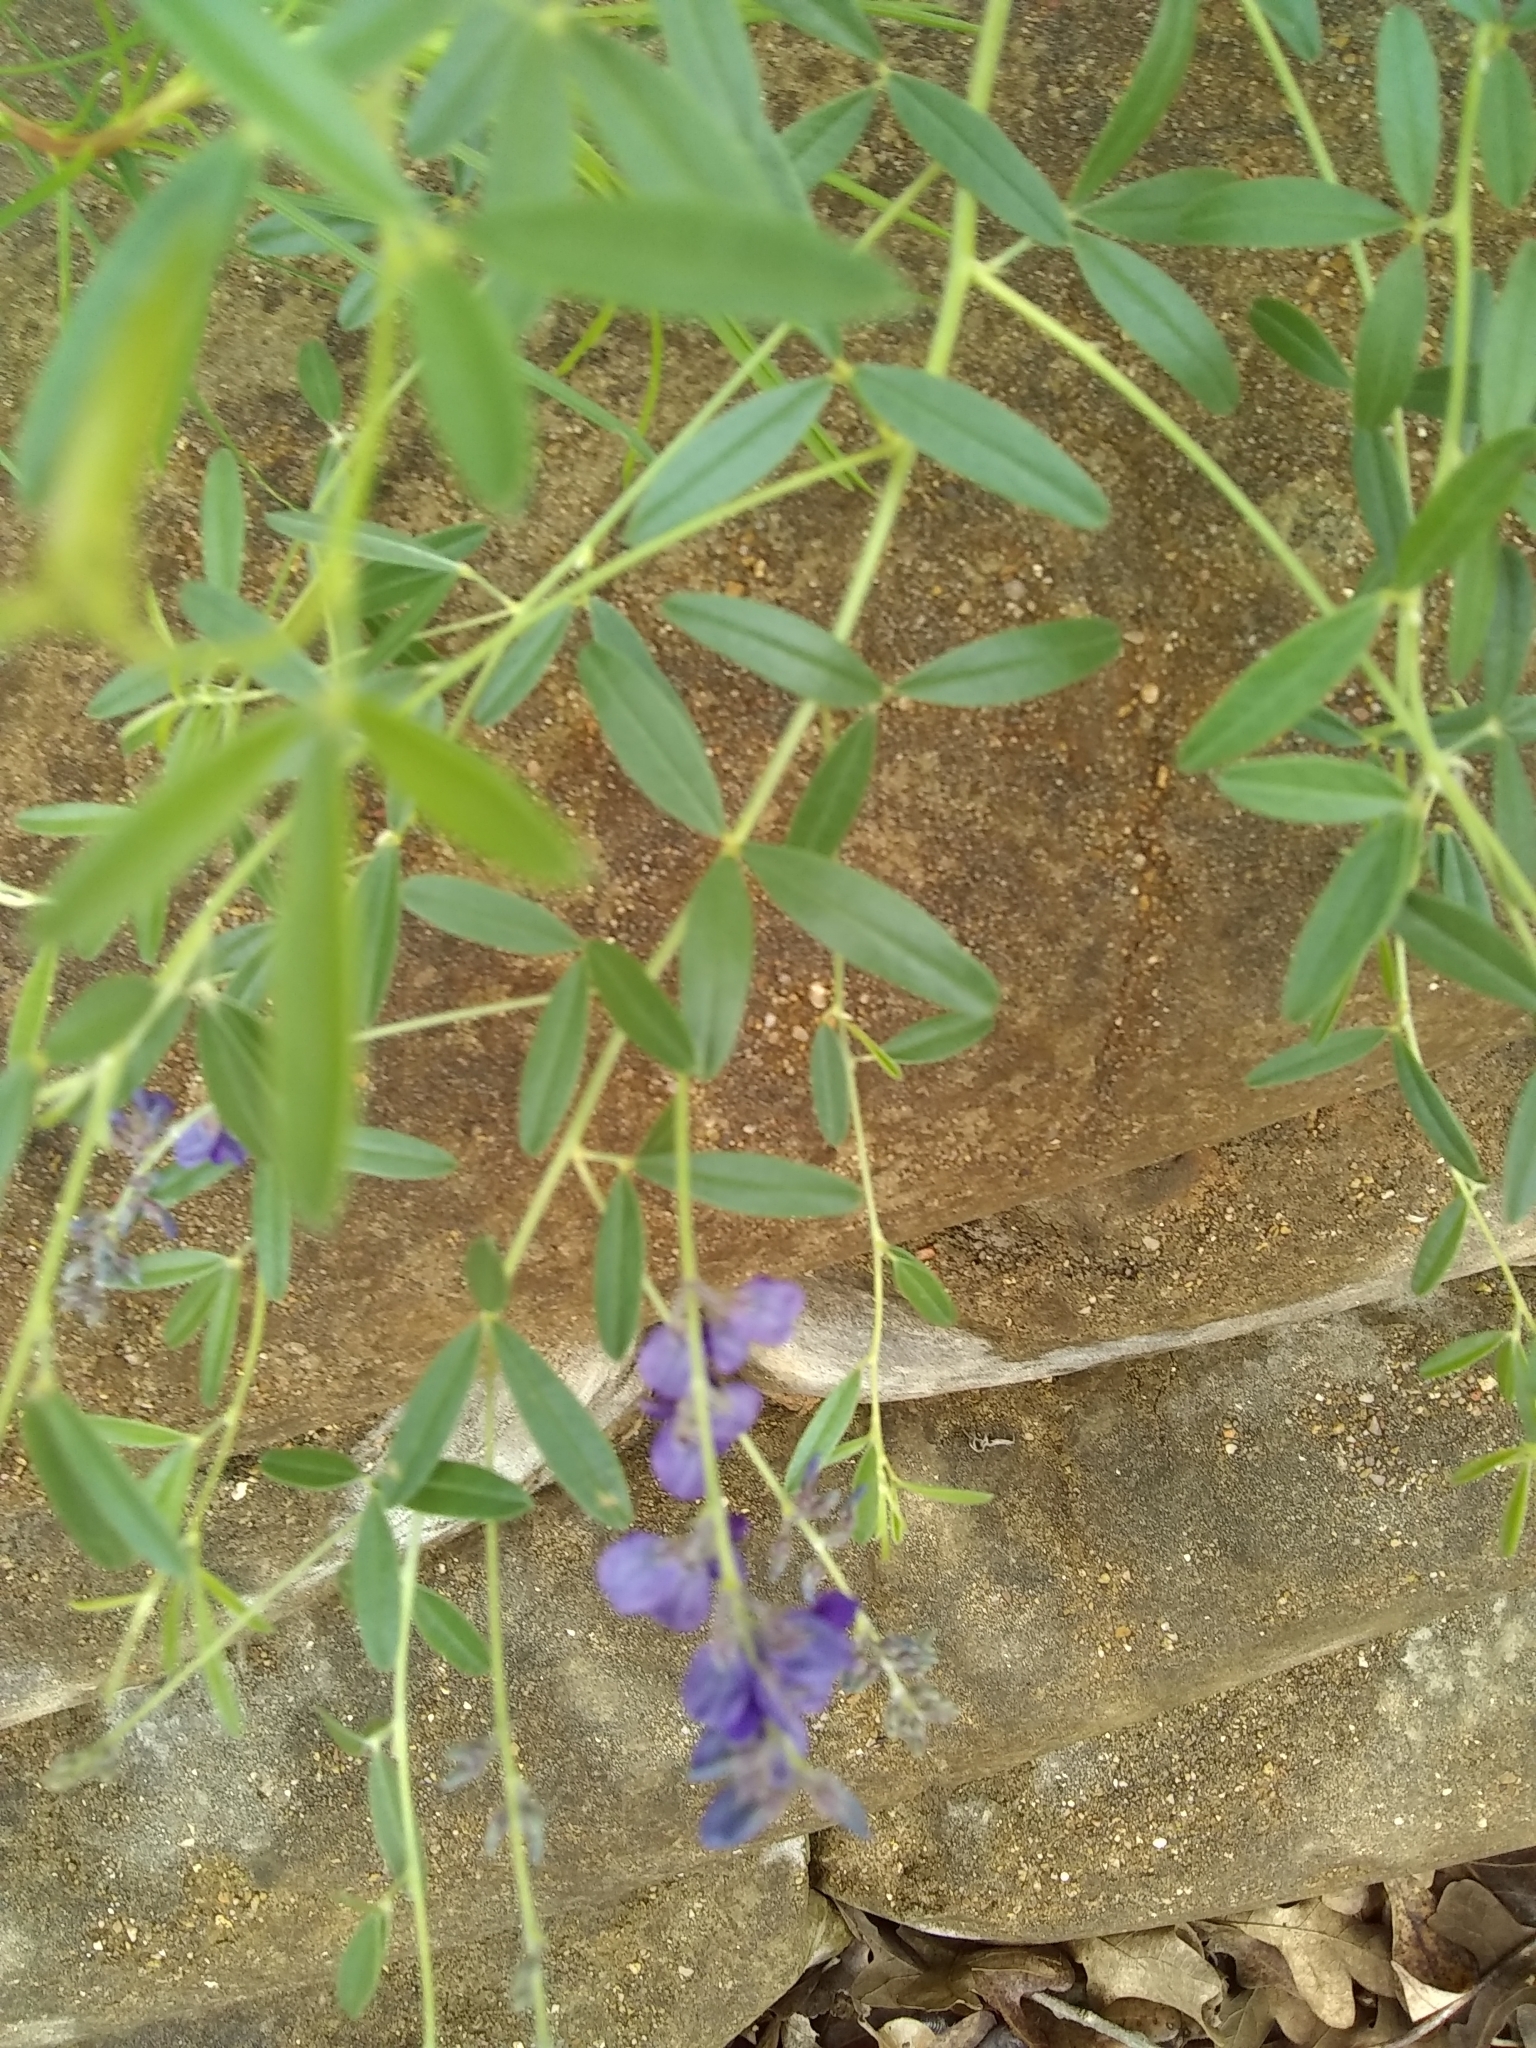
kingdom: Plantae
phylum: Tracheophyta
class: Magnoliopsida
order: Fabales
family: Fabaceae
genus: Pediomelum
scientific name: Pediomelum tenuiflorum
